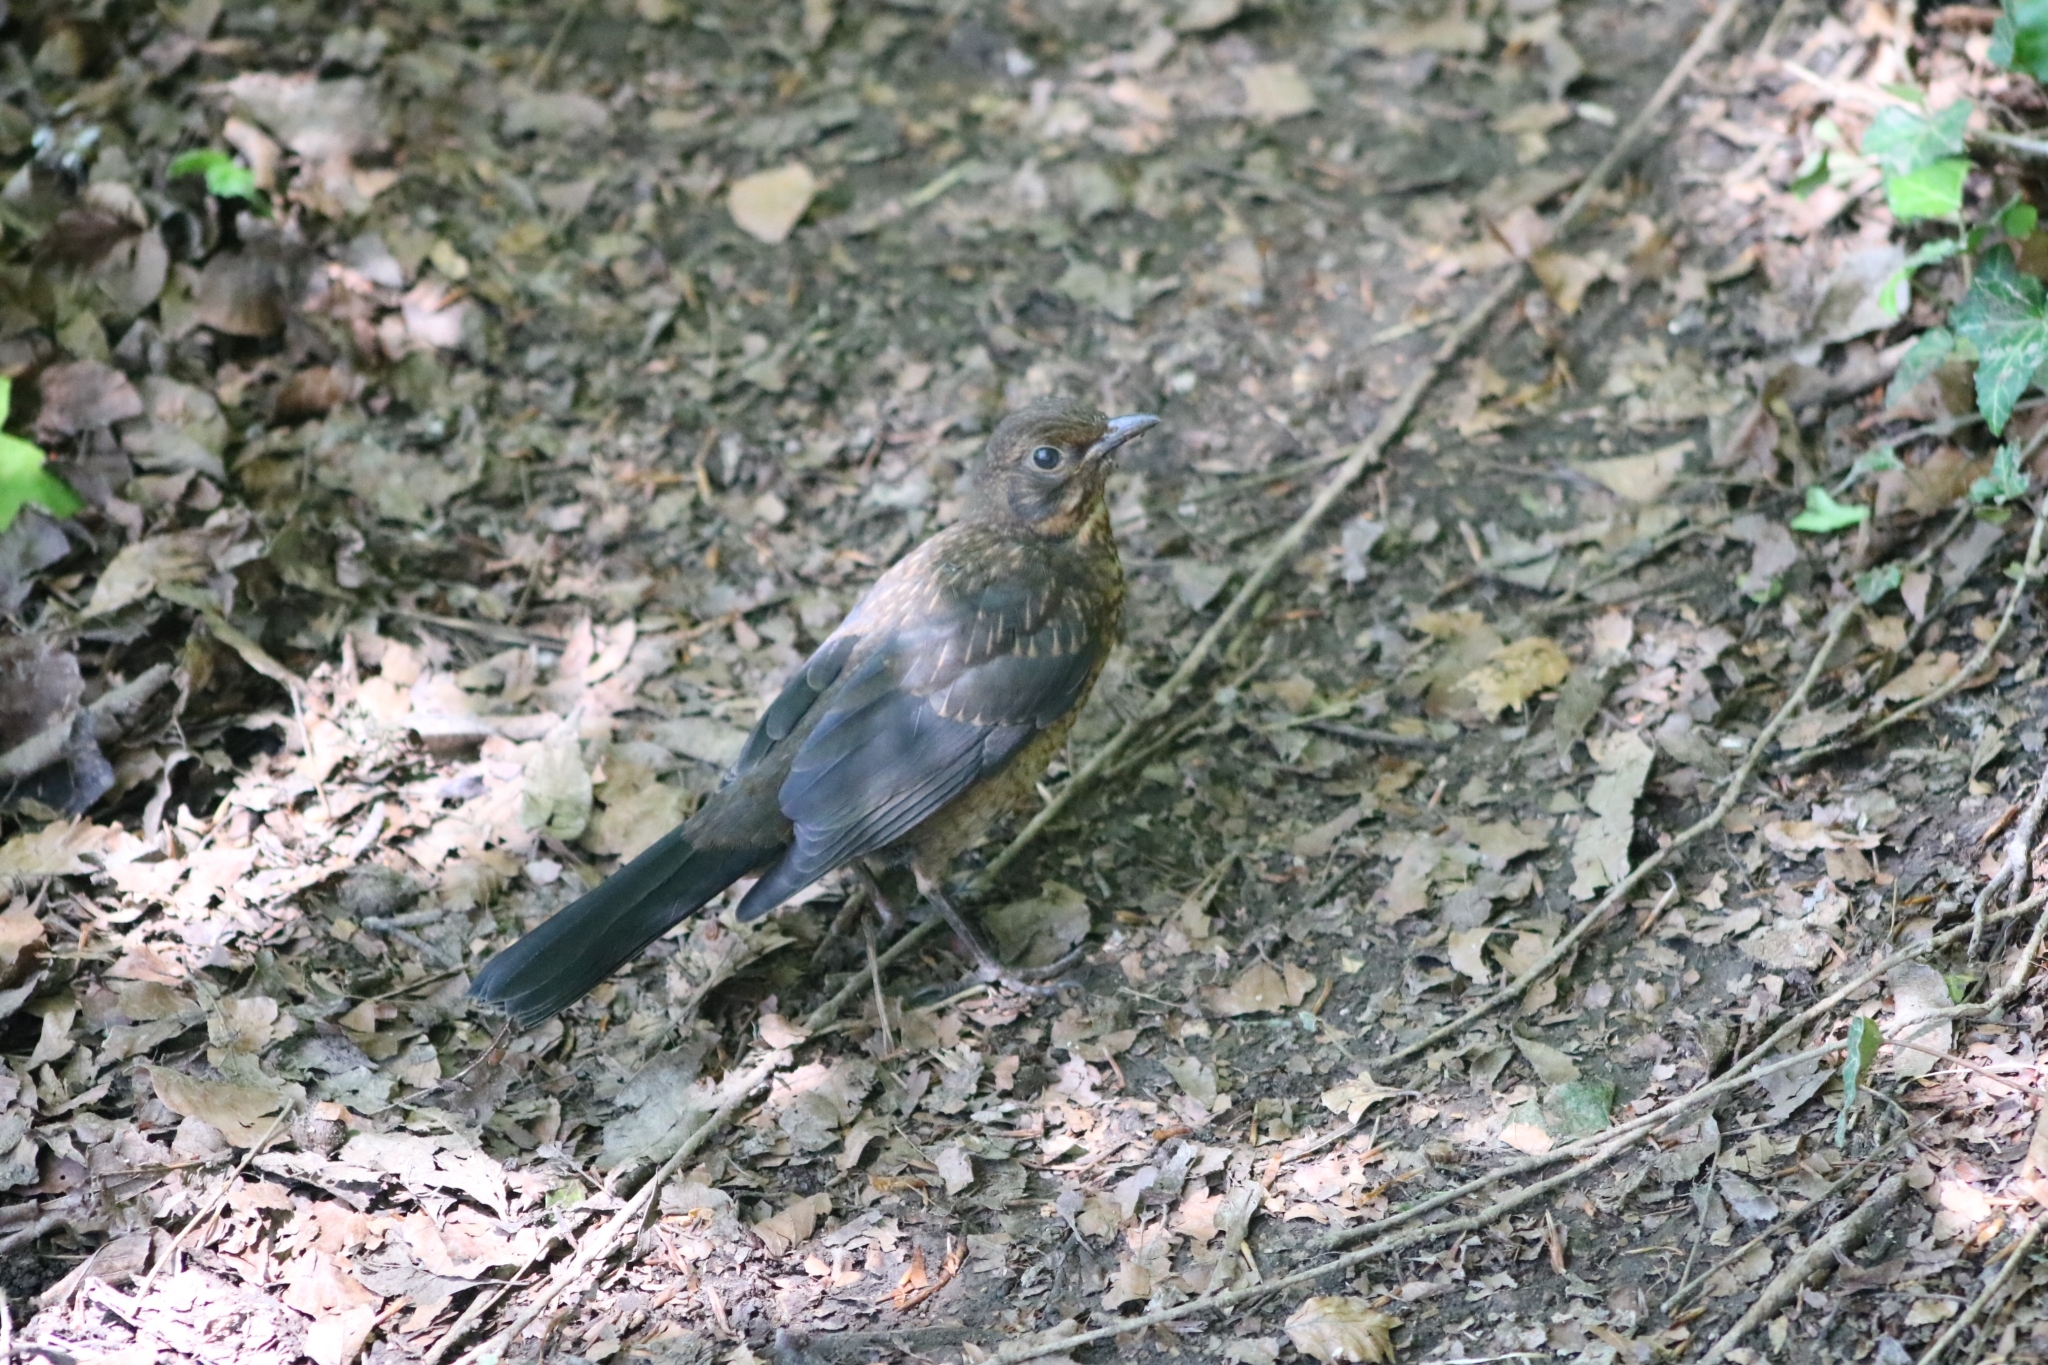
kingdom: Animalia
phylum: Chordata
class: Aves
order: Passeriformes
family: Turdidae
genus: Turdus
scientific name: Turdus merula
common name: Common blackbird
